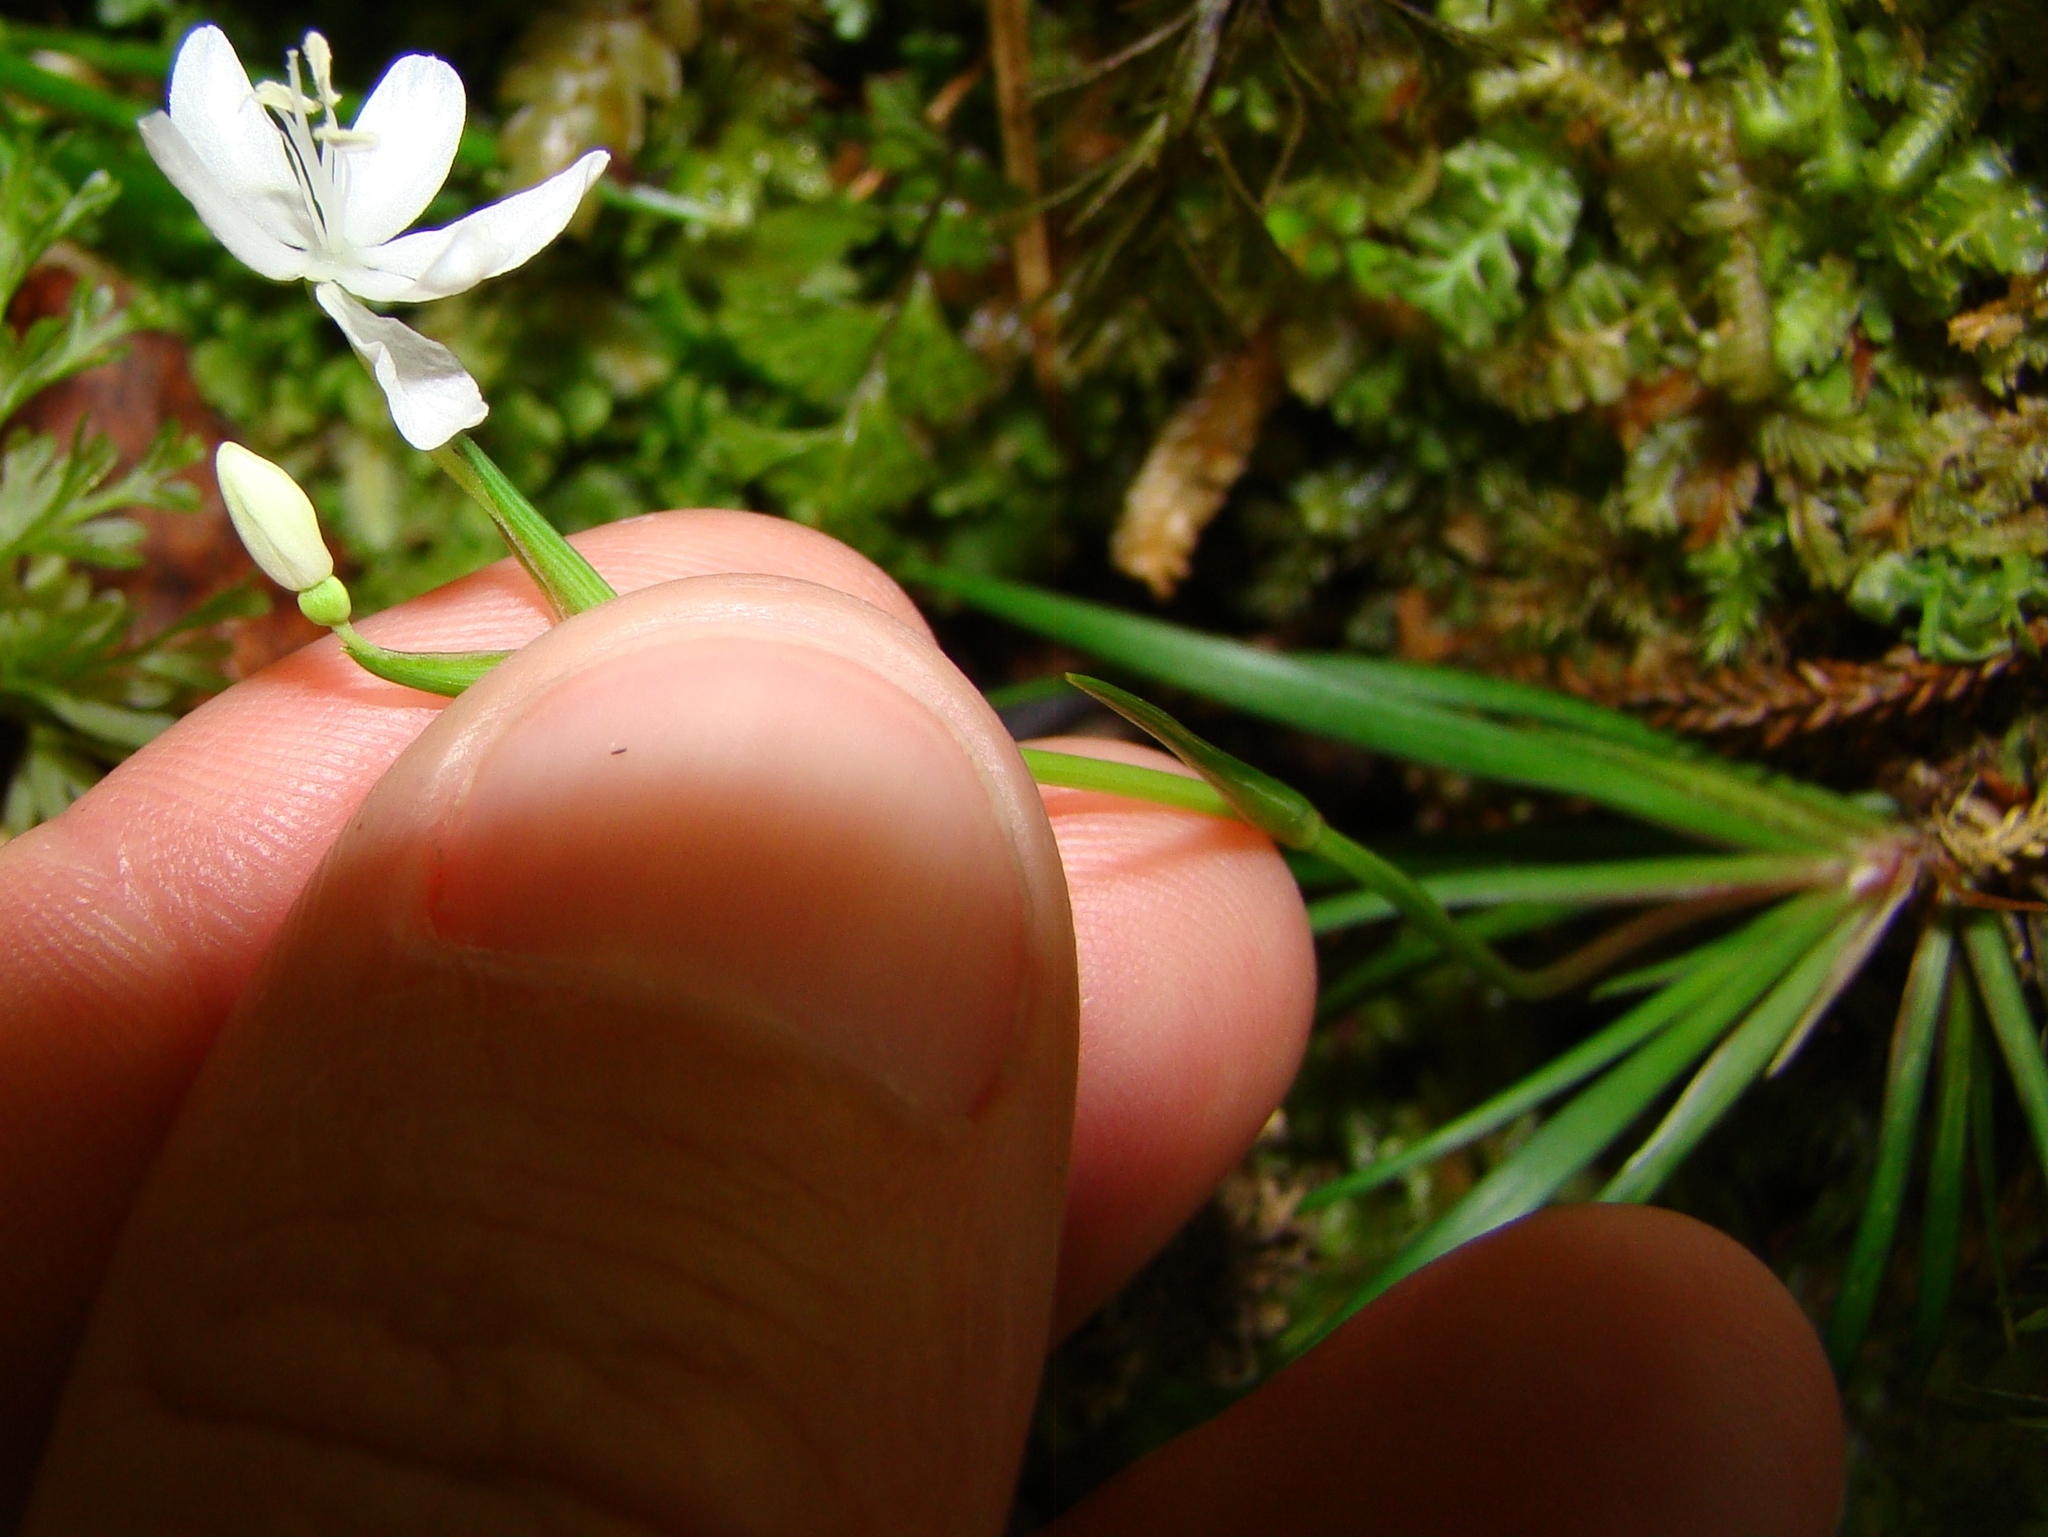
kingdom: Plantae
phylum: Tracheophyta
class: Liliopsida
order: Asparagales
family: Iridaceae
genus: Libertia
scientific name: Libertia micrantha
